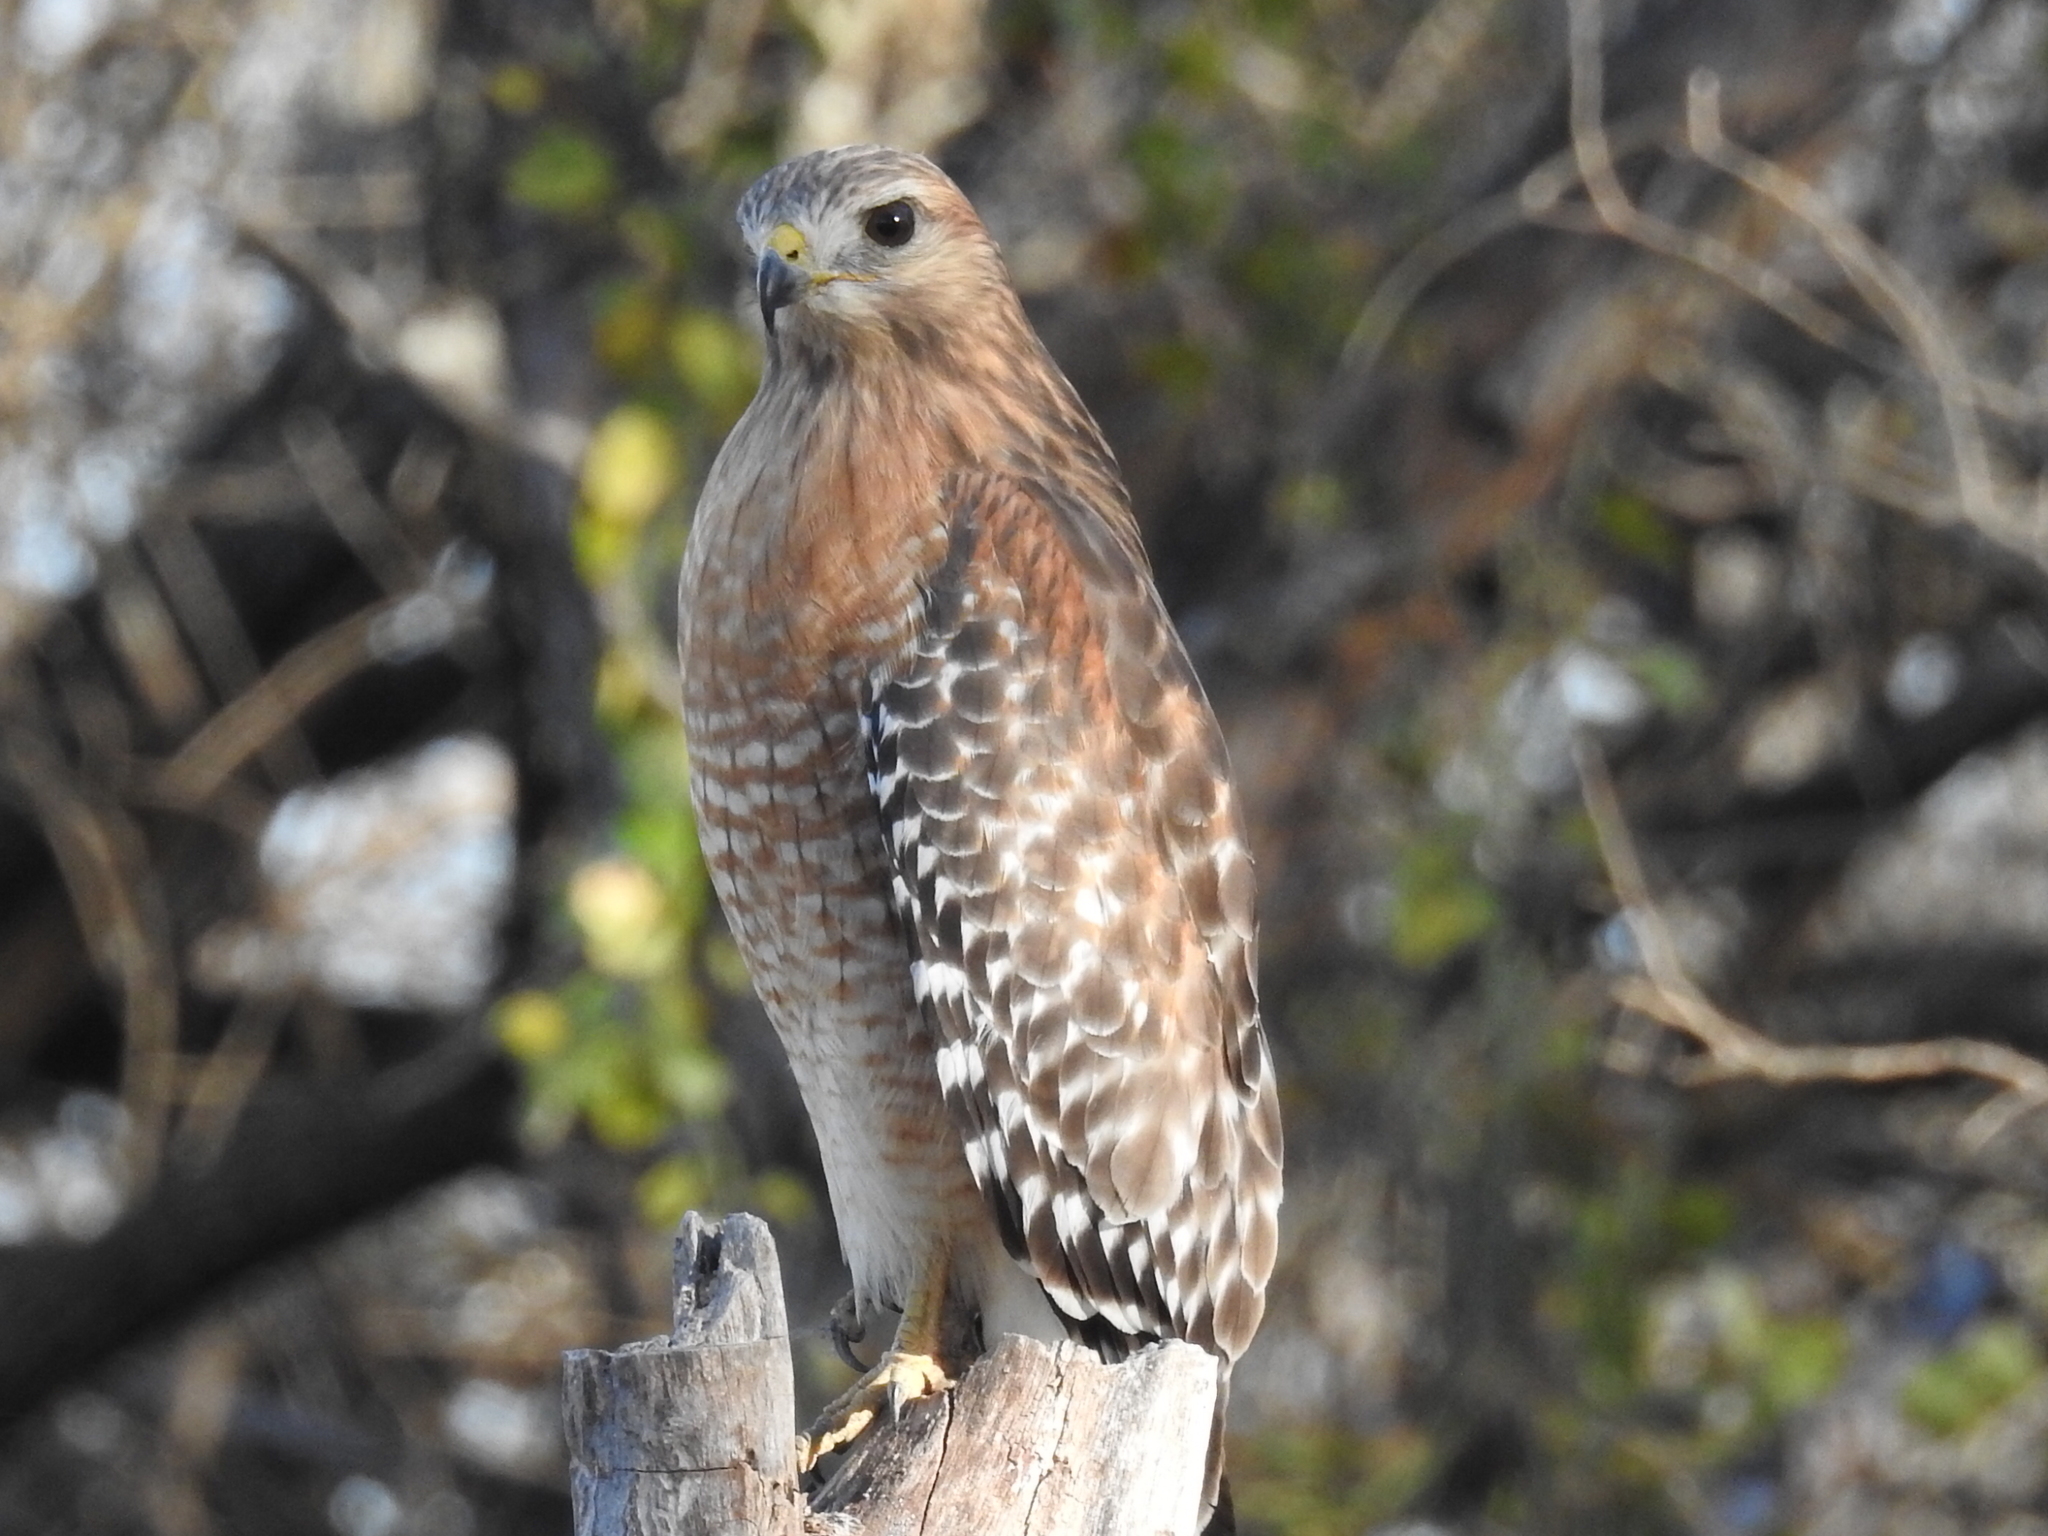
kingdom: Animalia
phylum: Chordata
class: Aves
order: Accipitriformes
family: Accipitridae
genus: Buteo
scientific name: Buteo lineatus
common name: Red-shouldered hawk
